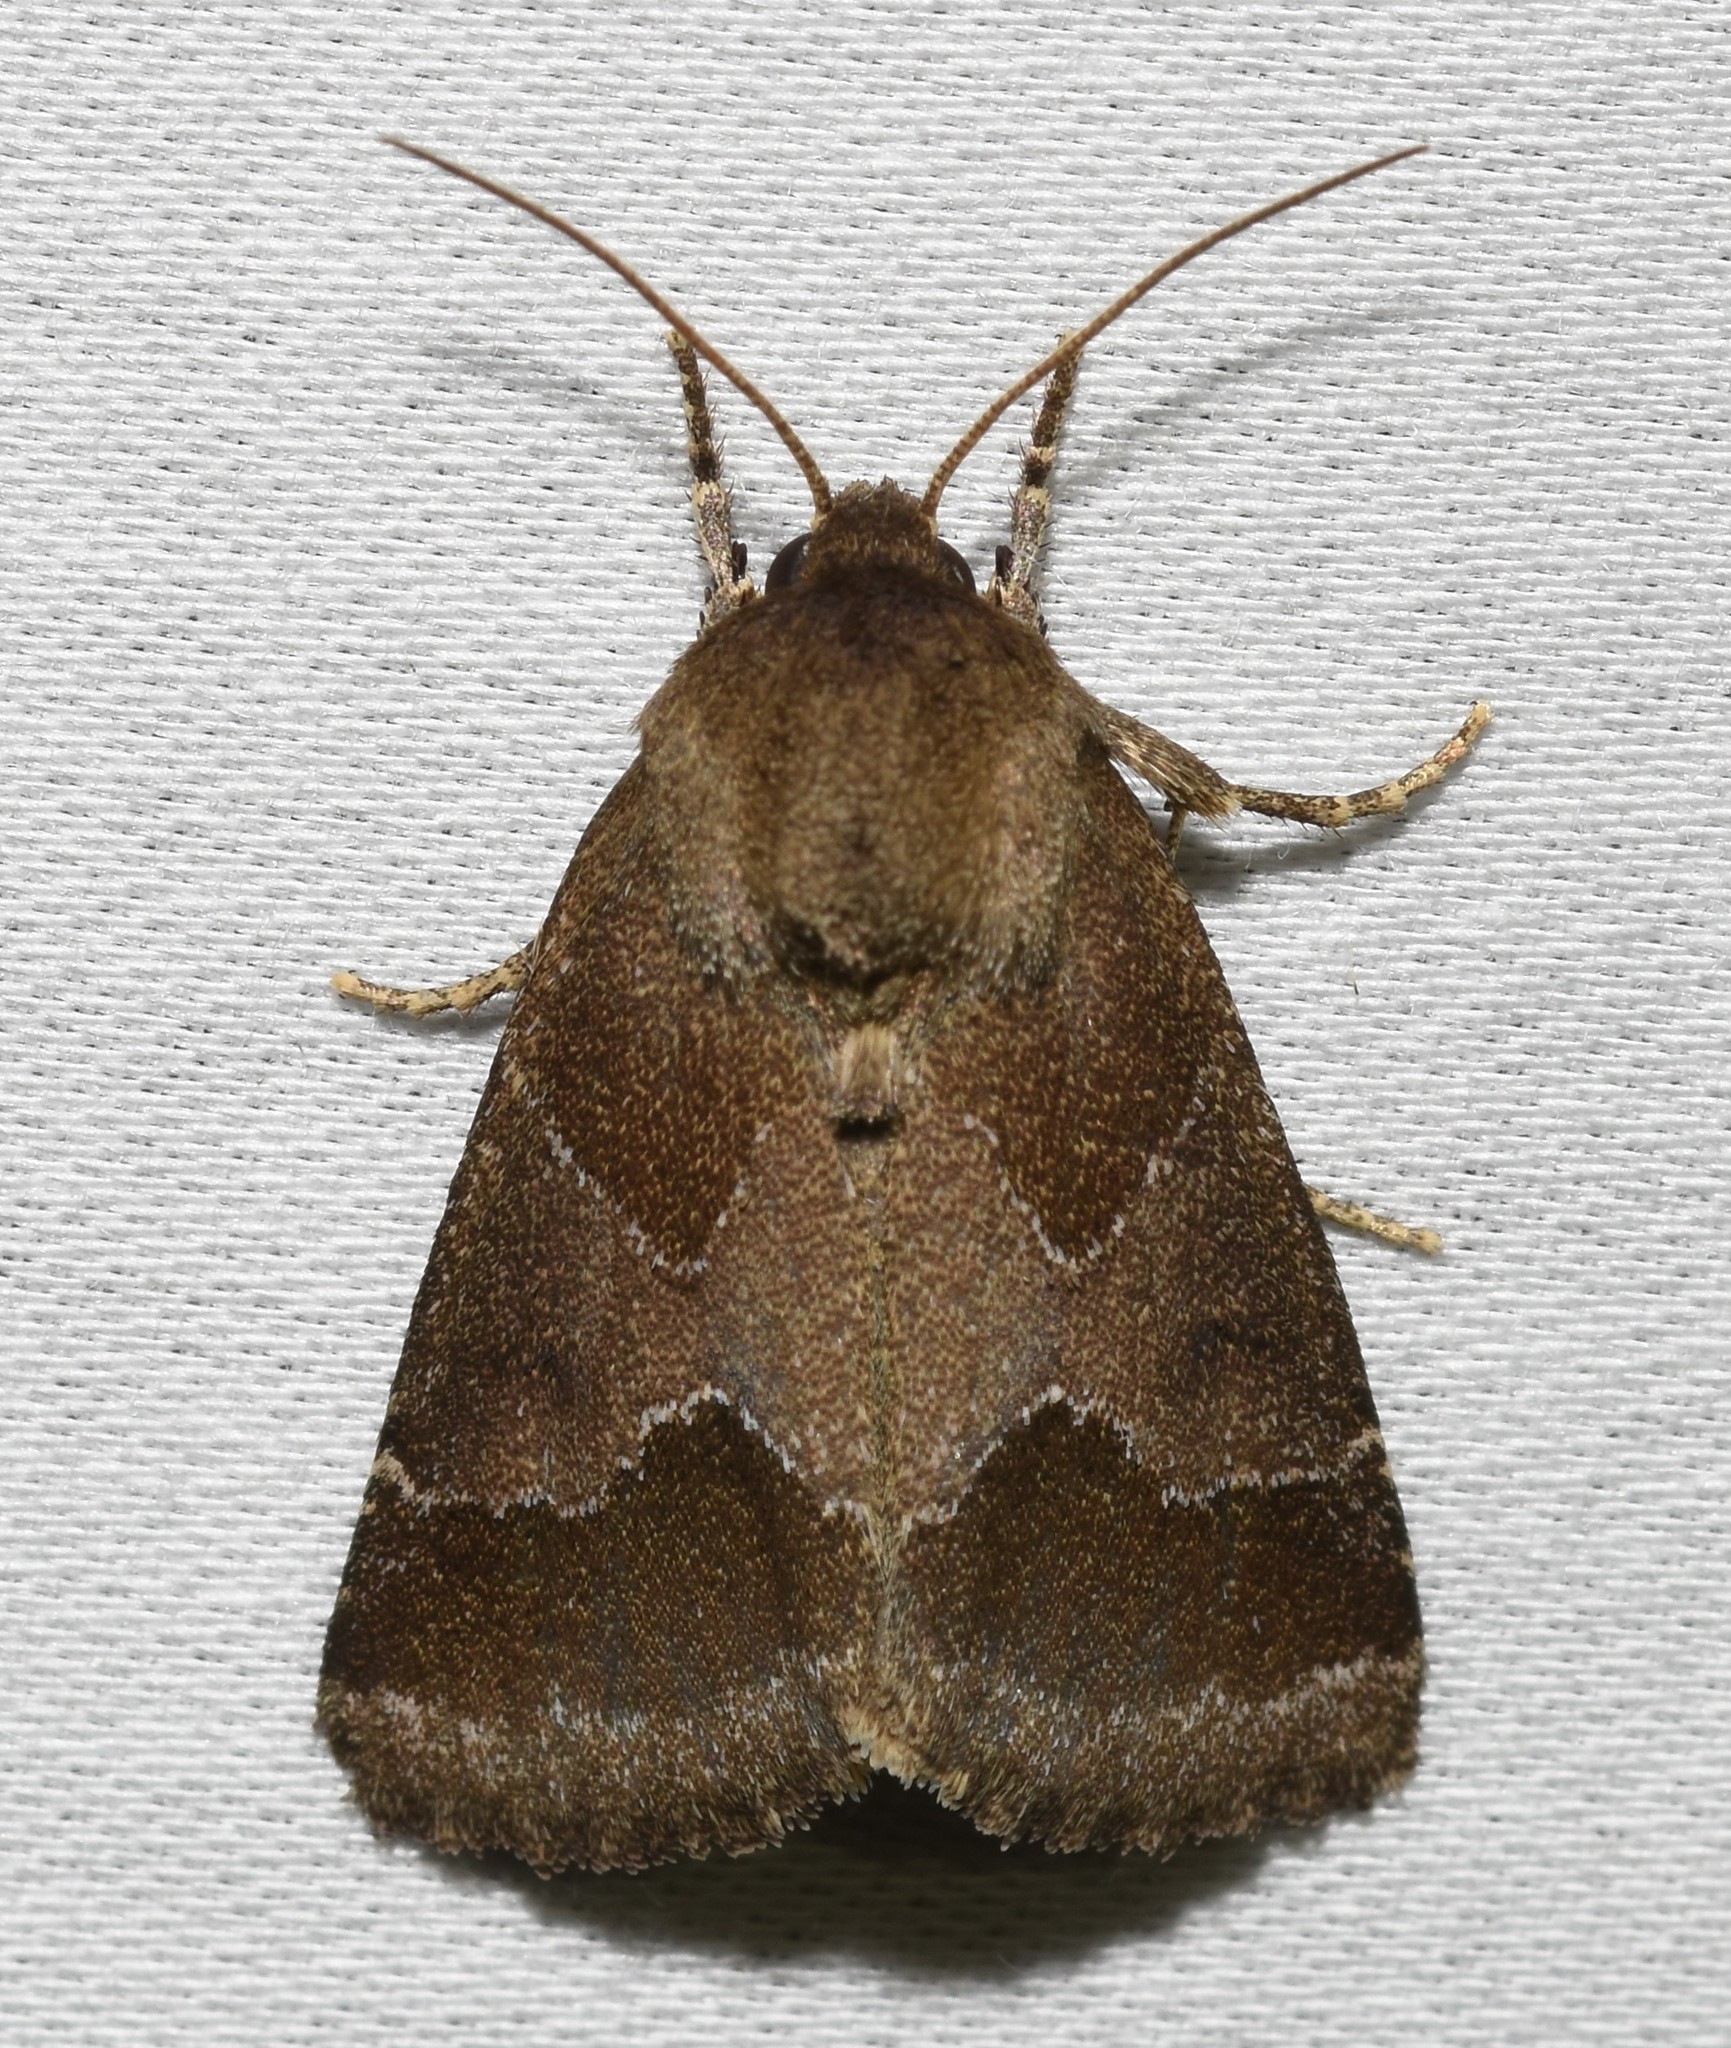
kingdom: Animalia
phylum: Arthropoda
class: Insecta
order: Lepidoptera
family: Noctuidae
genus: Schinia
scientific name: Schinia thoreaui
